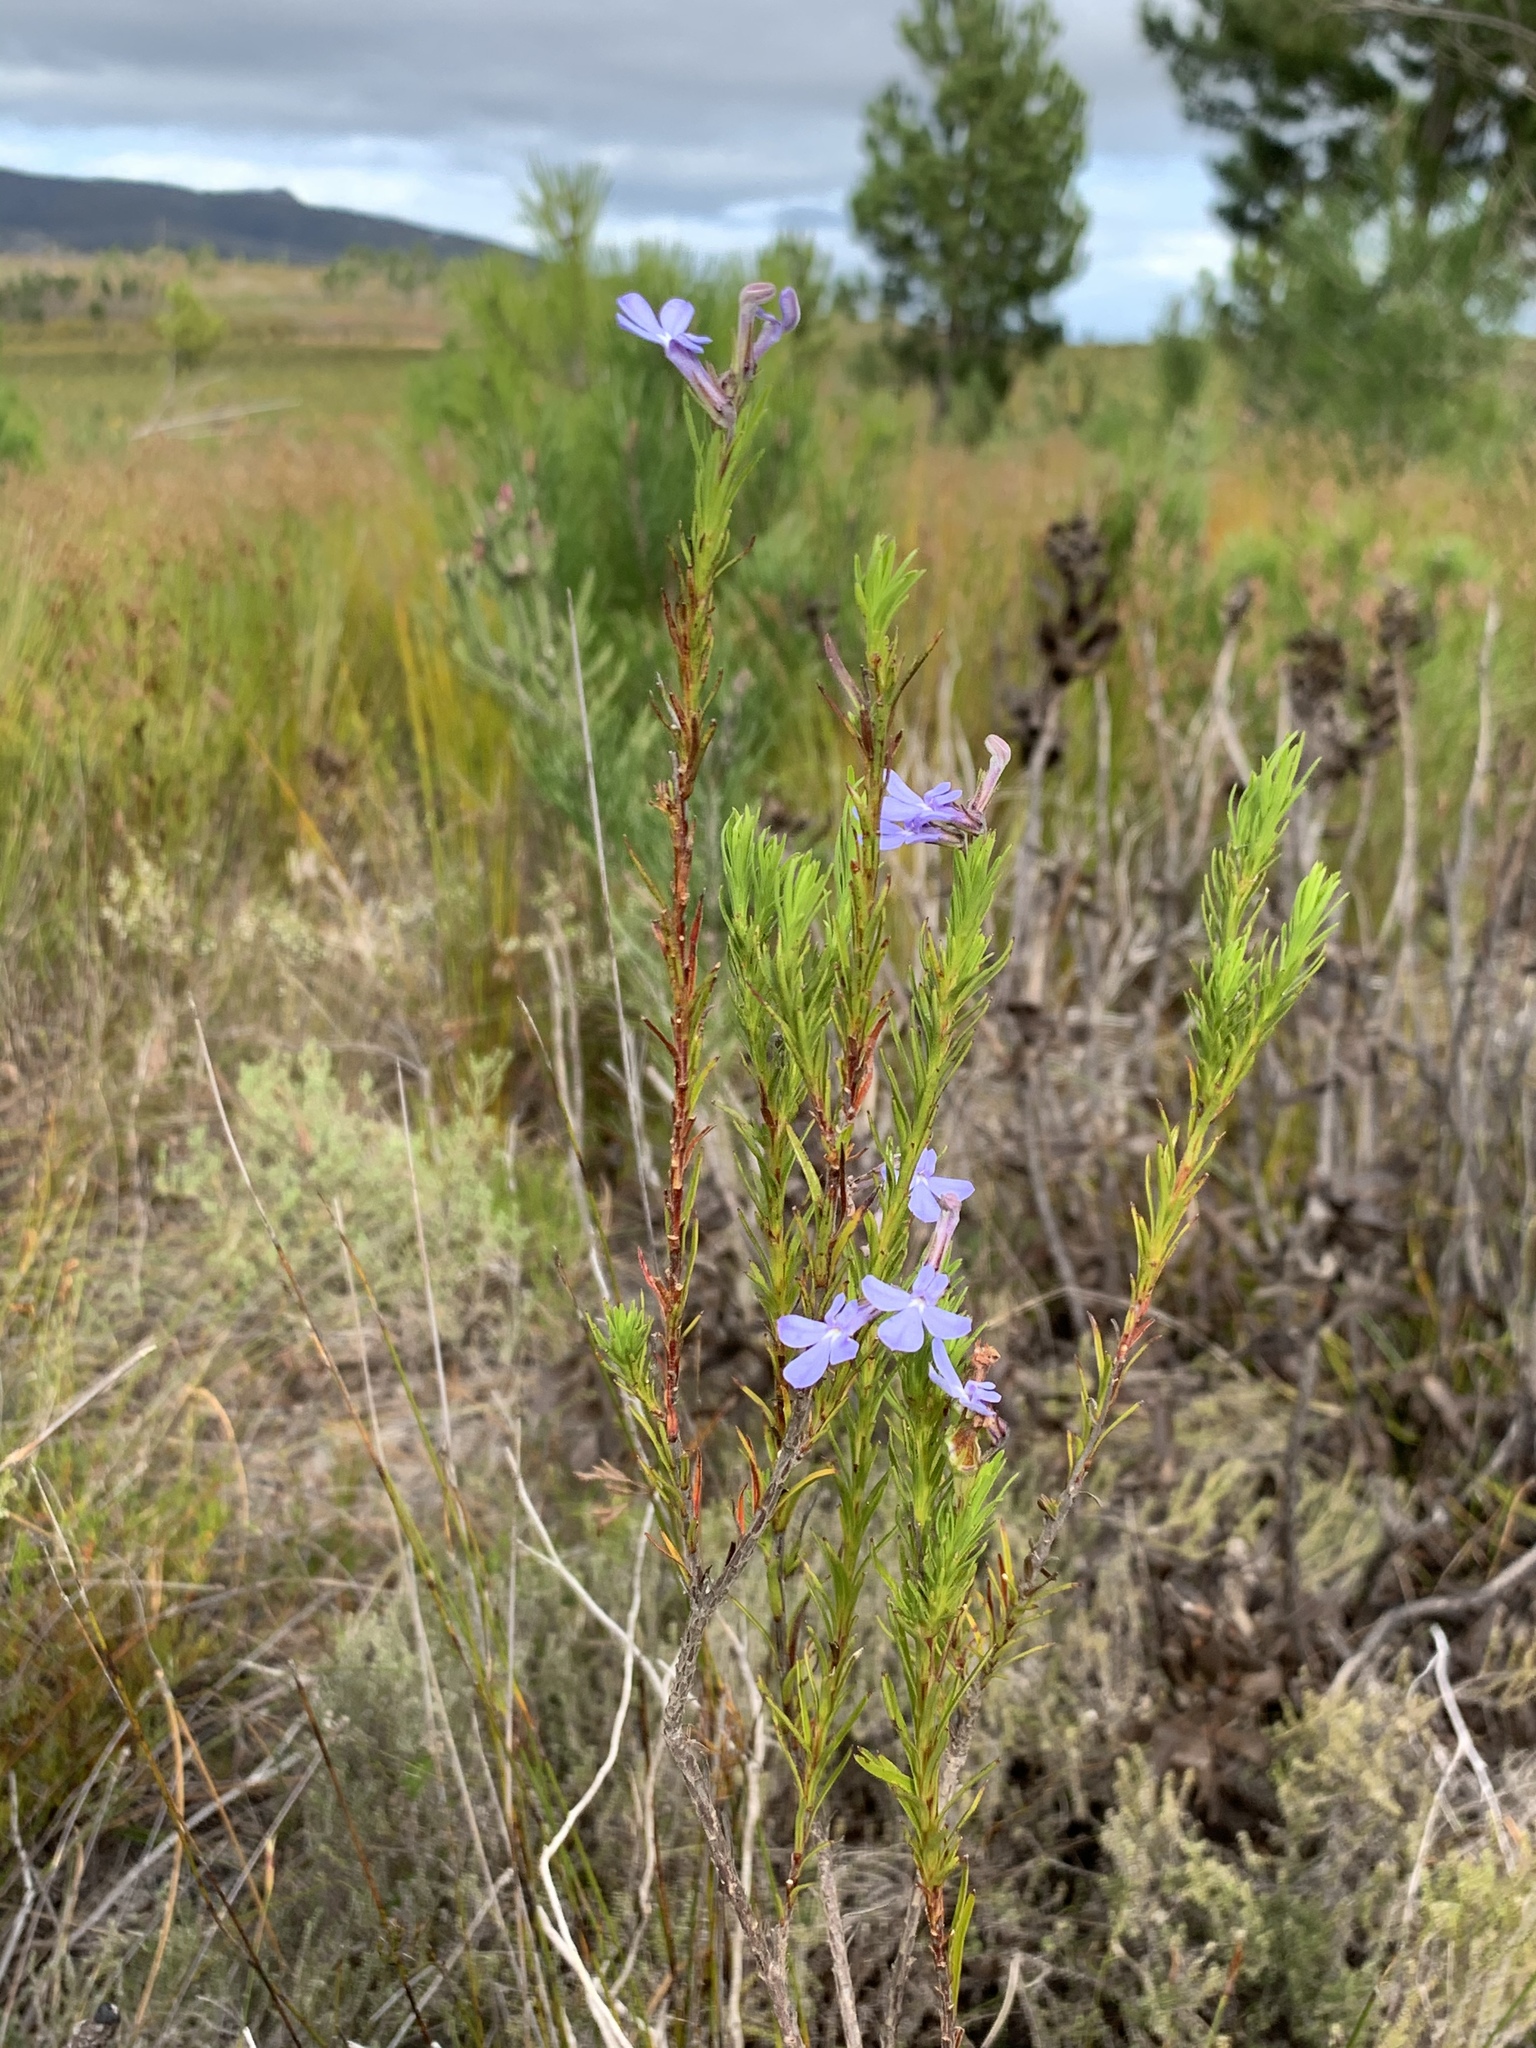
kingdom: Plantae
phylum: Tracheophyta
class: Magnoliopsida
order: Asterales
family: Campanulaceae
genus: Lobelia
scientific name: Lobelia pinifolia
